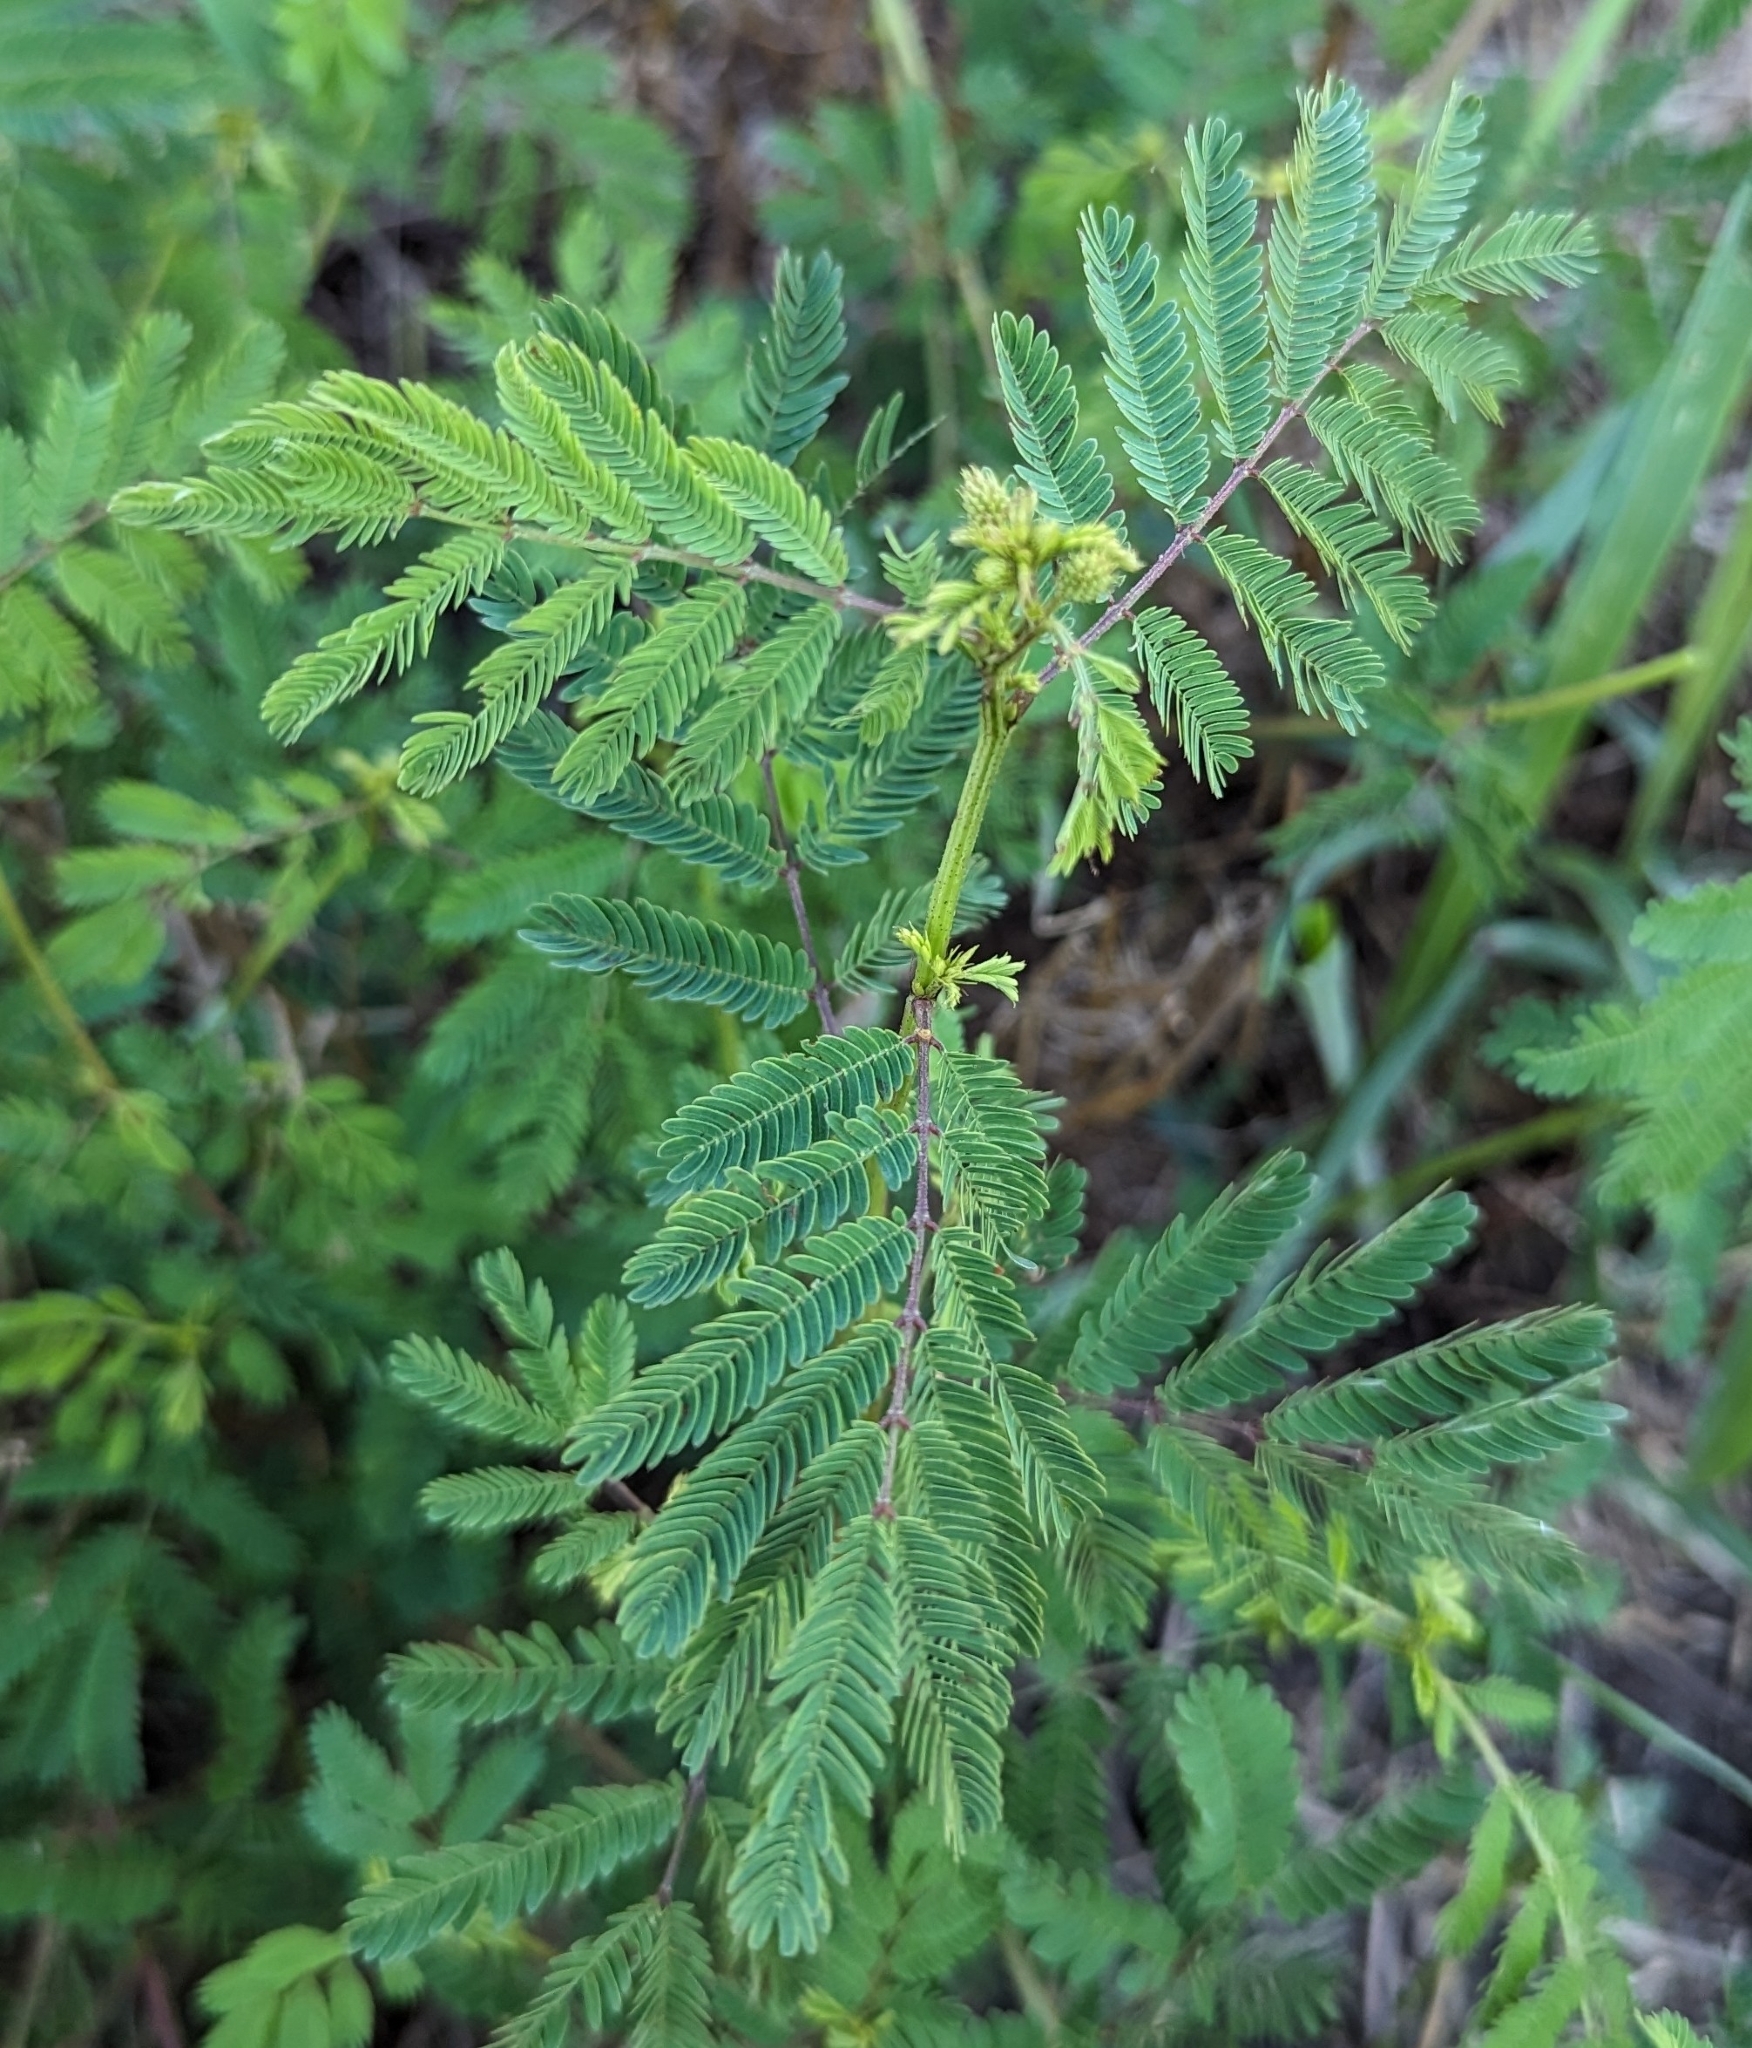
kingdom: Plantae
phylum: Tracheophyta
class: Magnoliopsida
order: Fabales
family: Fabaceae
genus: Desmanthus
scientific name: Desmanthus illinoensis
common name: Illinois bundle-flower
